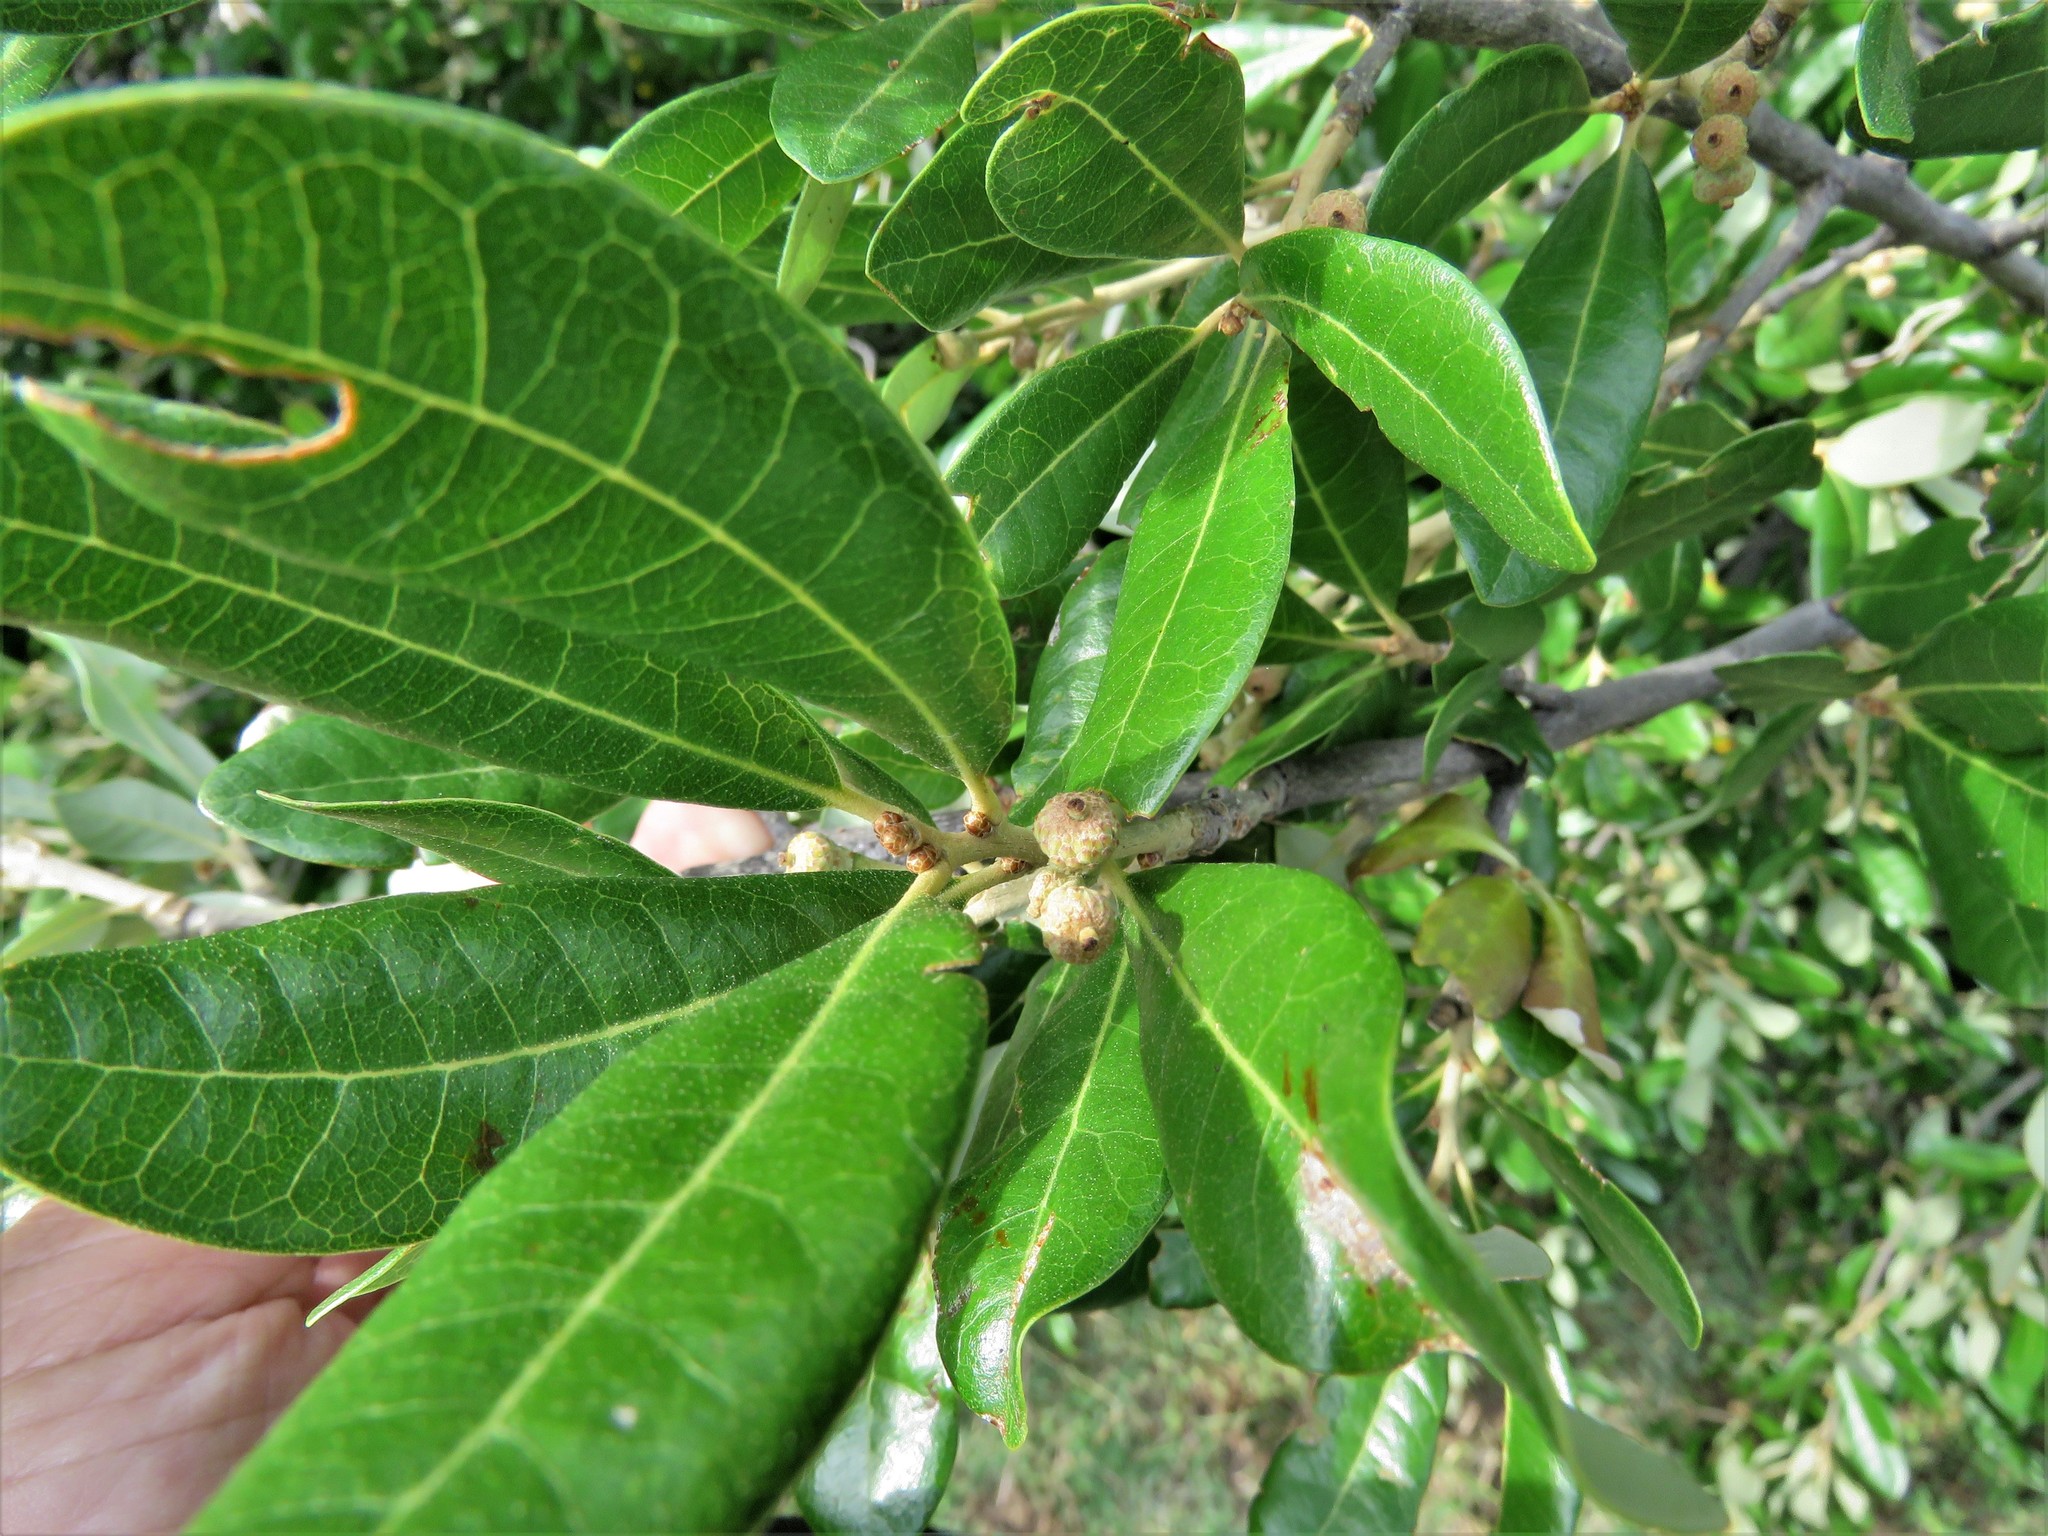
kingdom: Plantae
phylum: Tracheophyta
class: Magnoliopsida
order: Fagales
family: Fagaceae
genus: Quercus
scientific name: Quercus fusiformis
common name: Texas live oak
